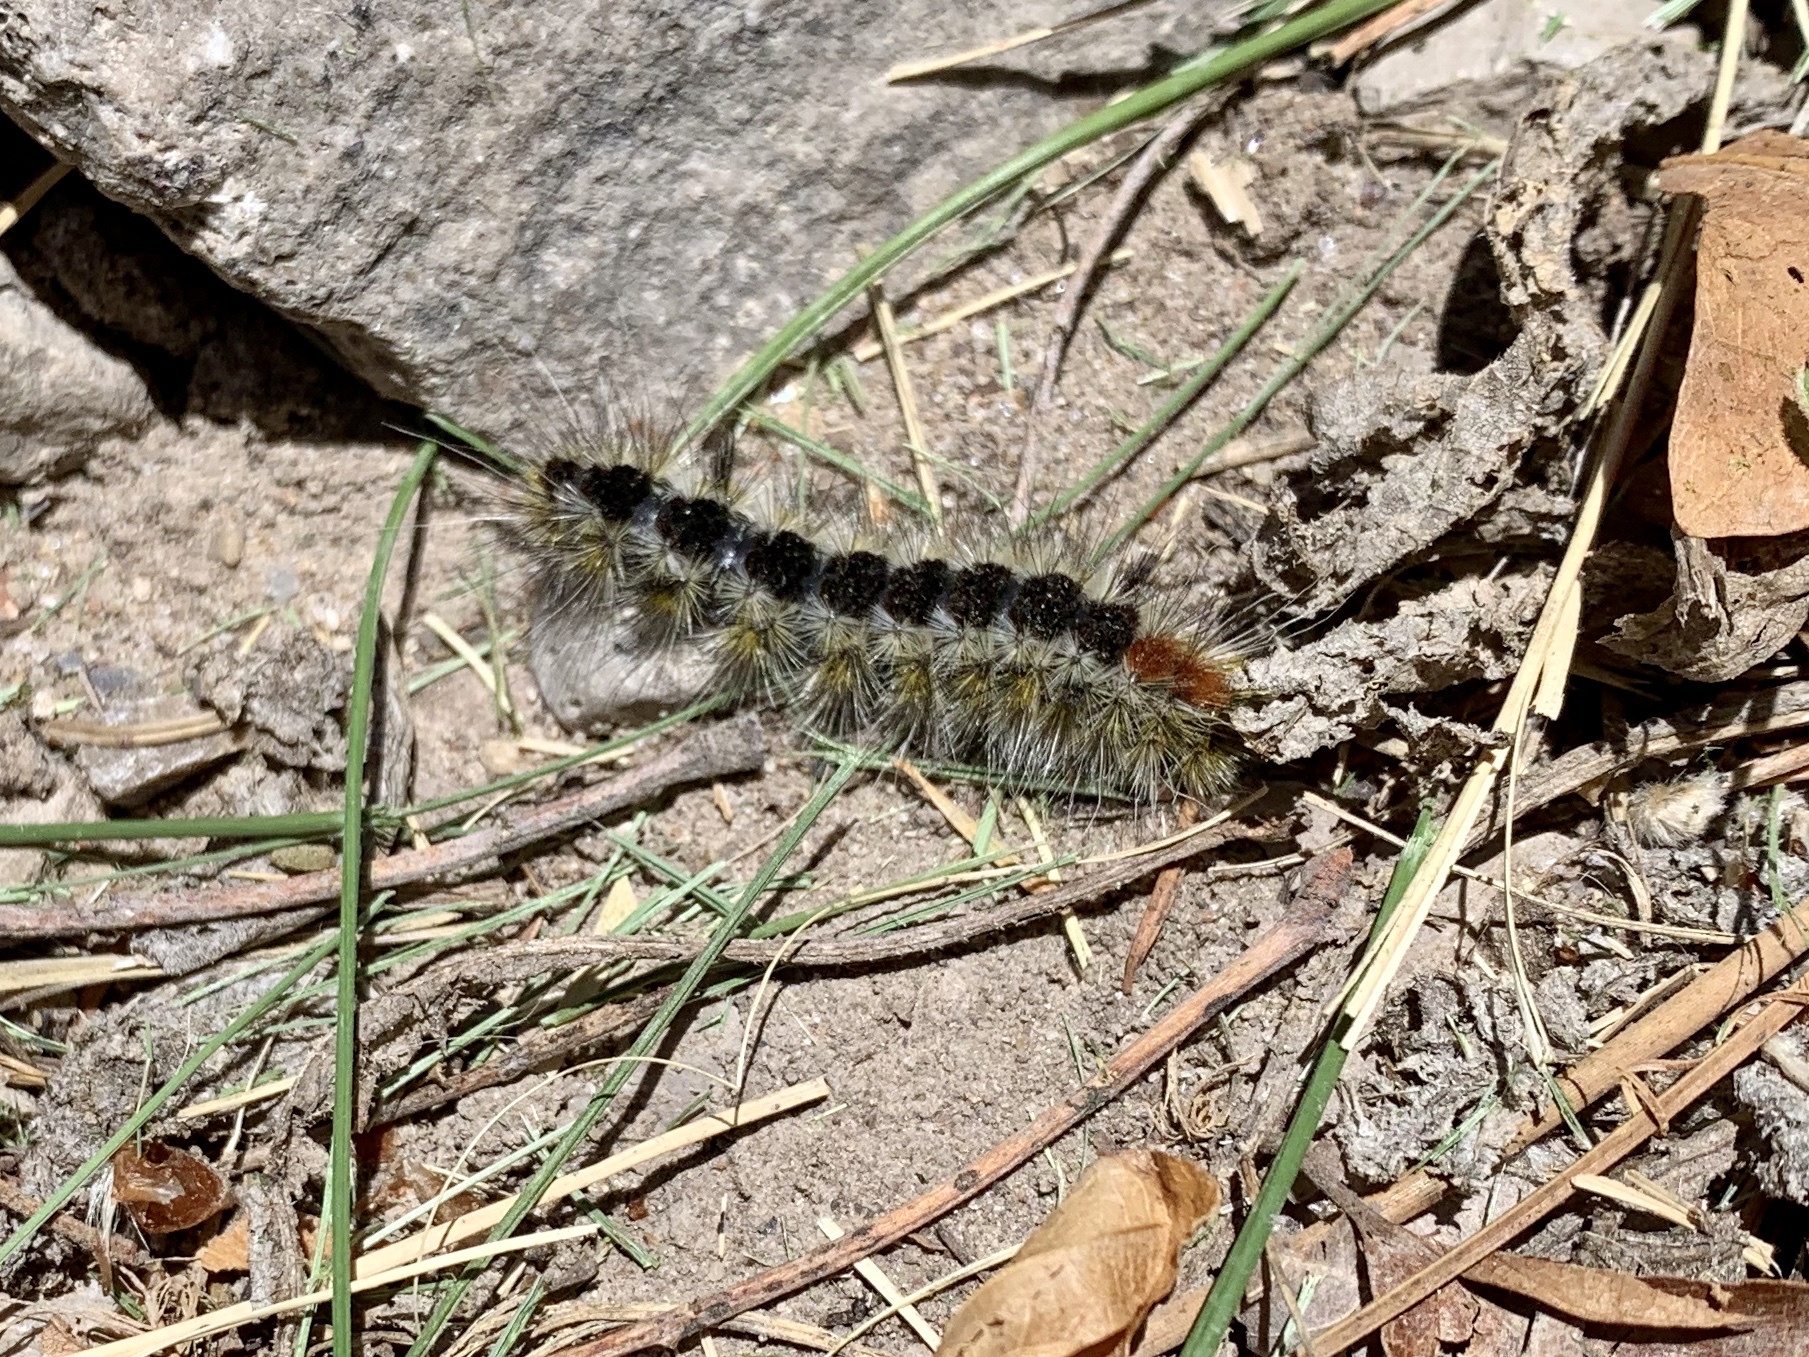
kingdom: Animalia
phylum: Arthropoda
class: Insecta
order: Lepidoptera
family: Erebidae
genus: Lophocampa
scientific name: Lophocampa ingens
